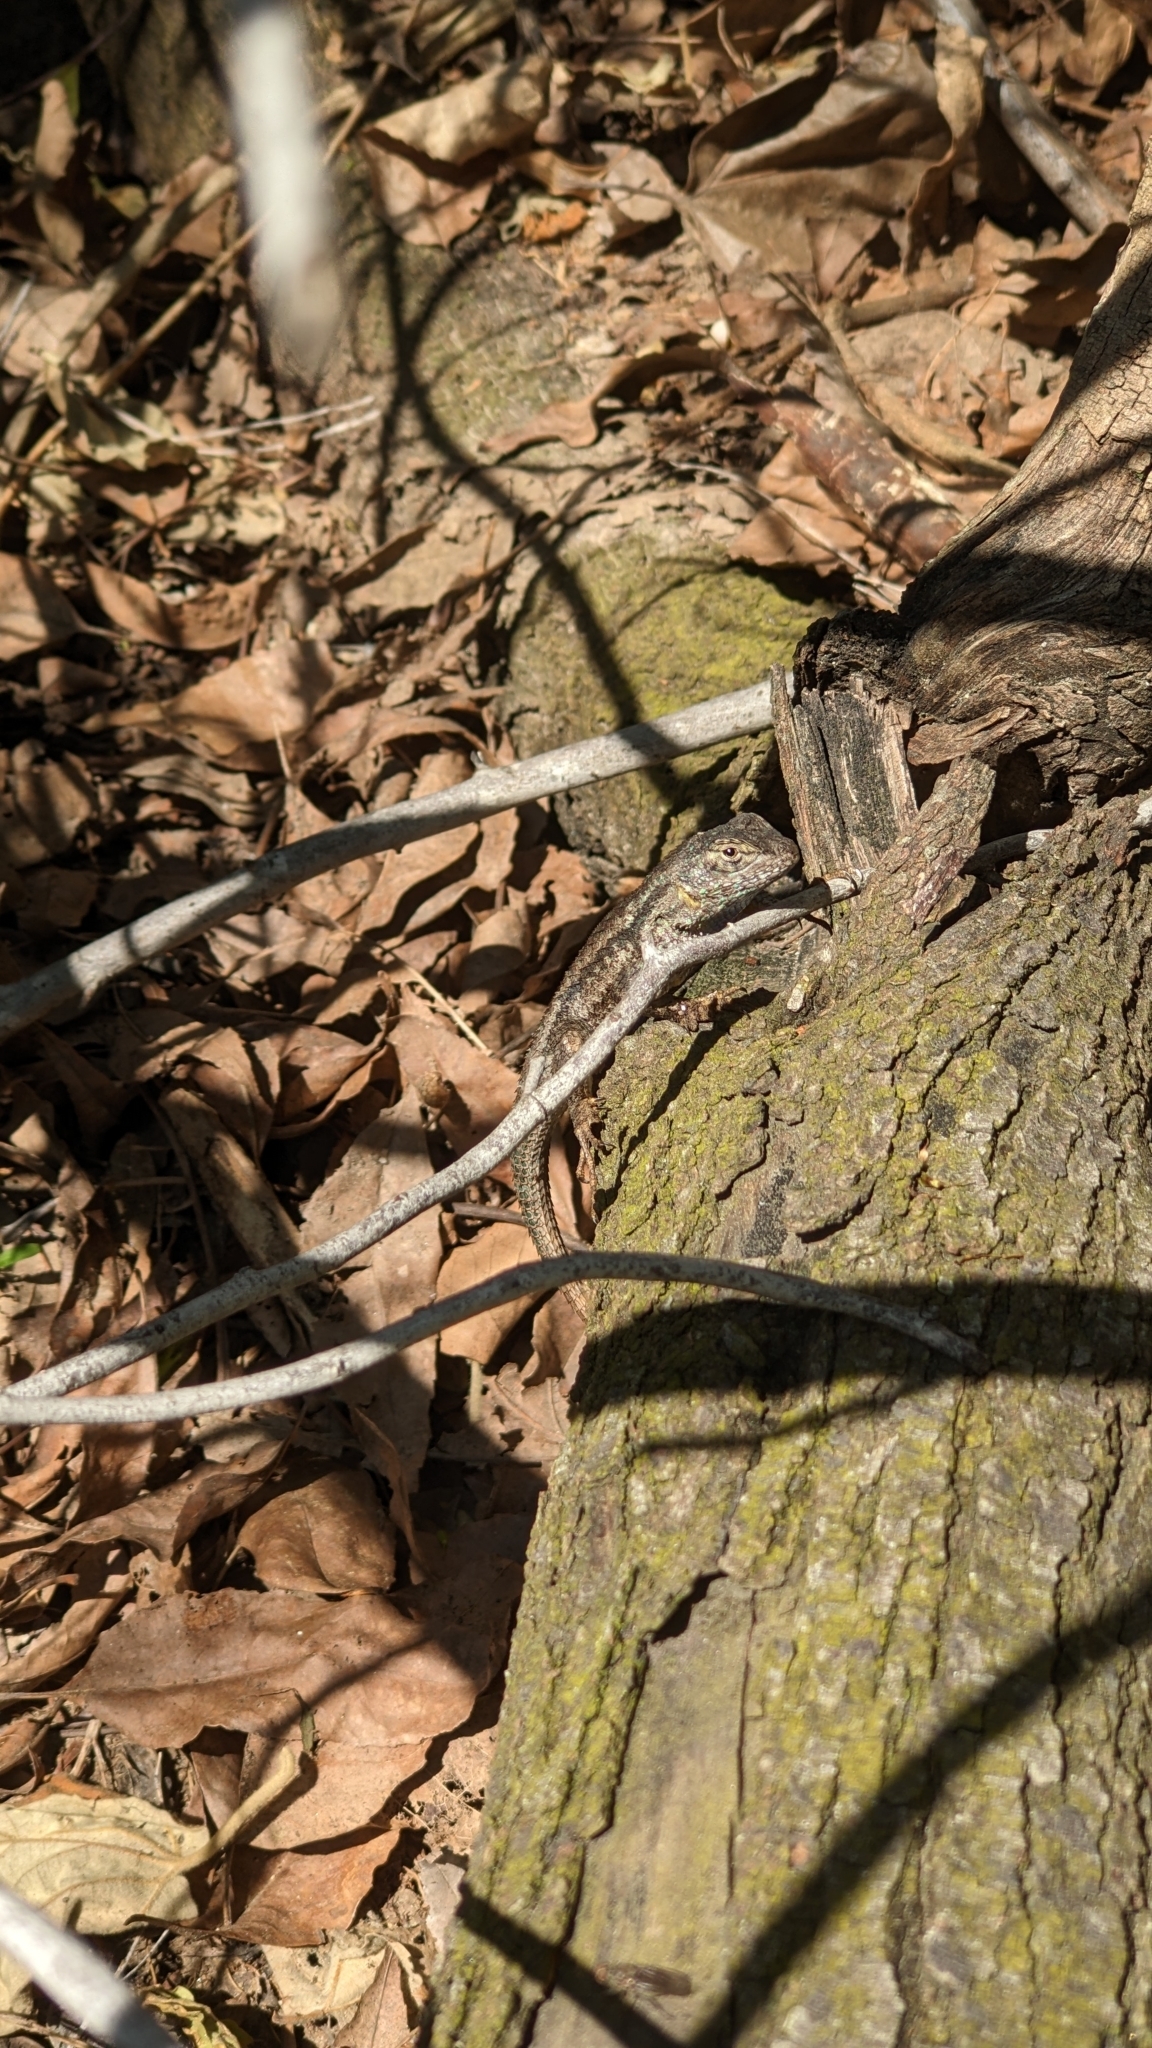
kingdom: Animalia
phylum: Chordata
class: Squamata
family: Phrynosomatidae
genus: Sceloporus
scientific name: Sceloporus occidentalis
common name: Western fence lizard
